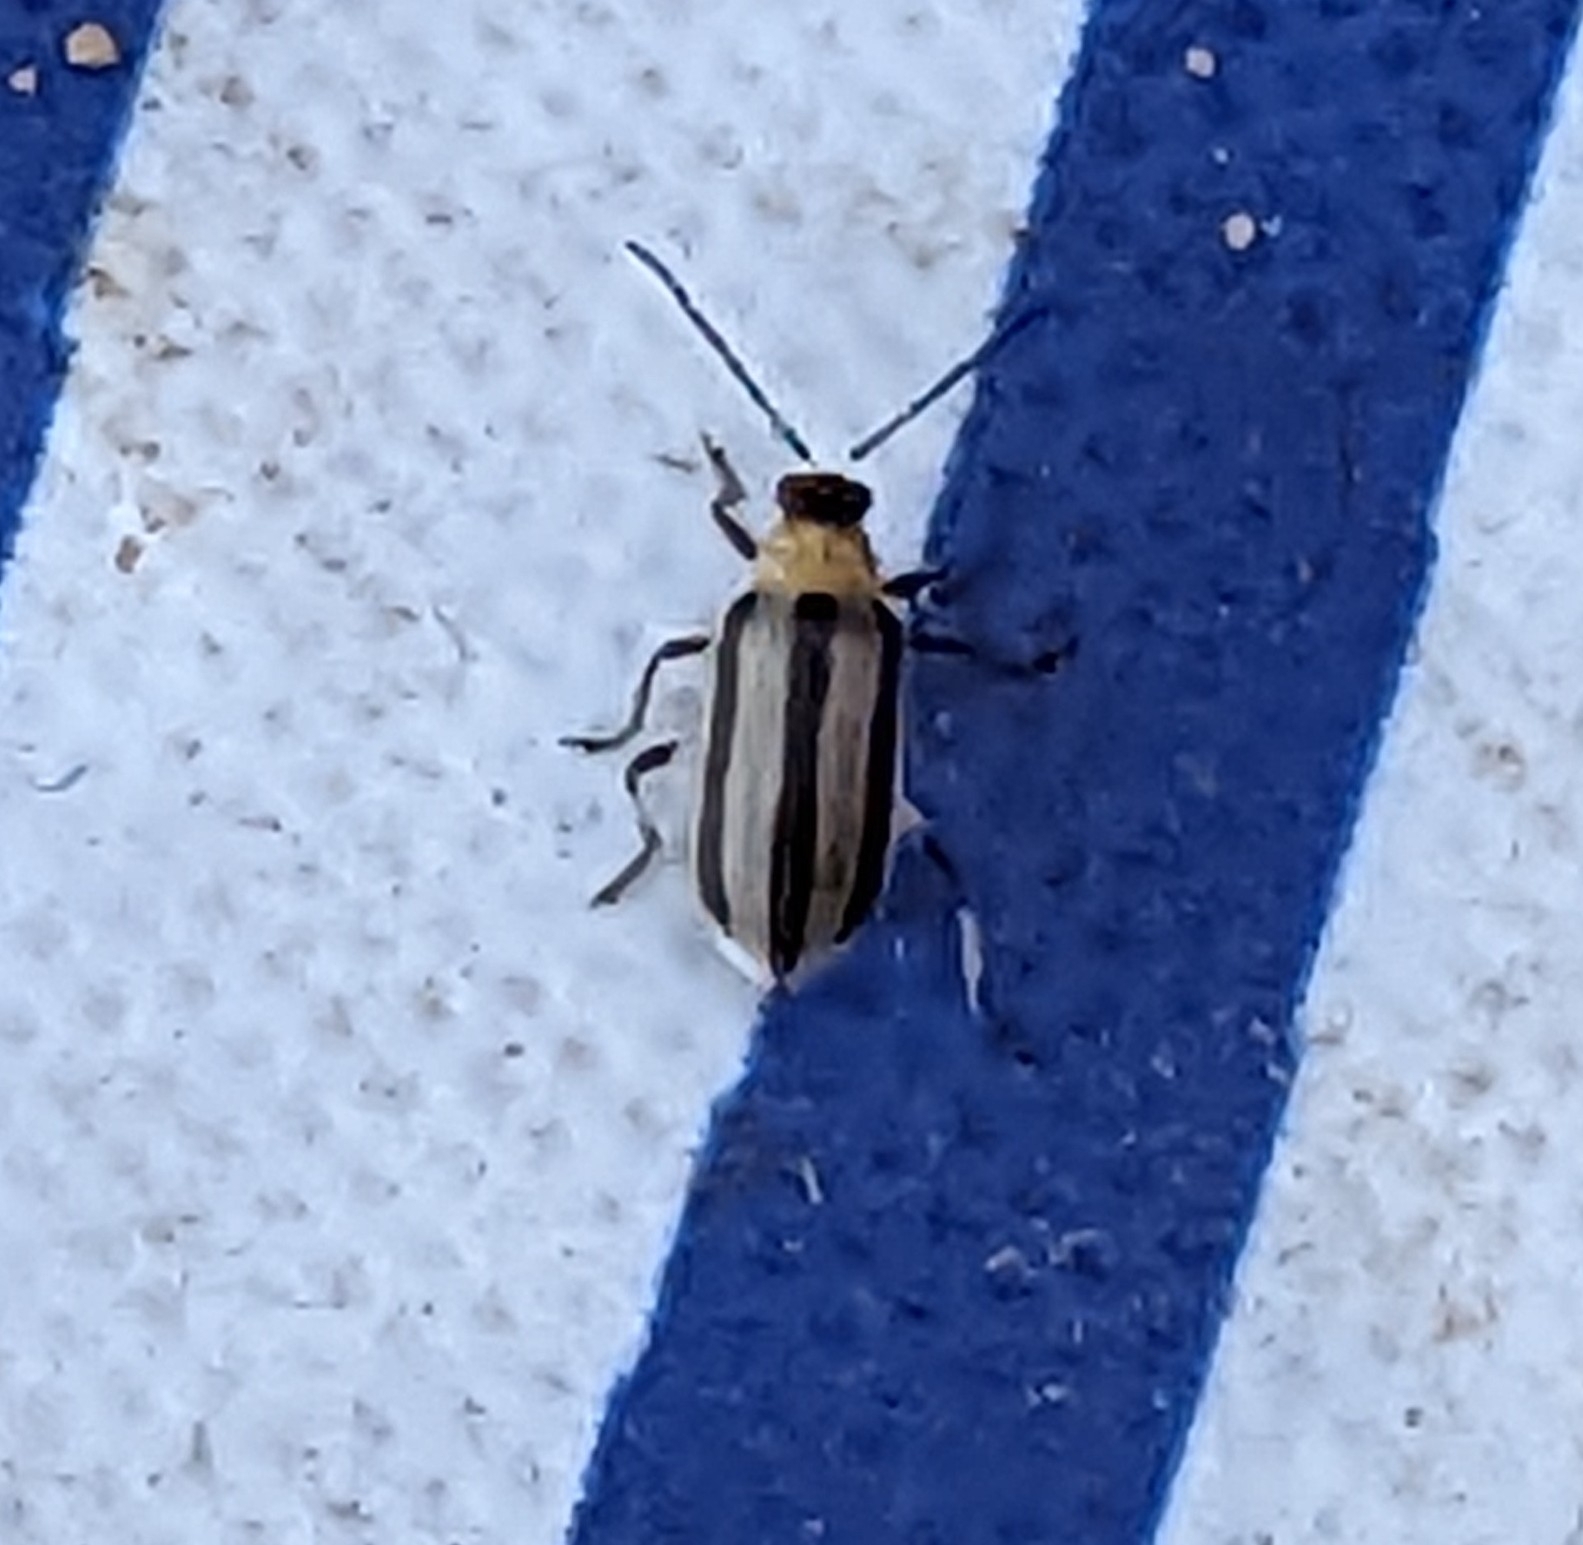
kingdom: Animalia
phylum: Arthropoda
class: Insecta
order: Coleoptera
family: Chrysomelidae
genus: Acalymma
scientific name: Acalymma vittatum
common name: Striped cucumber beetle
